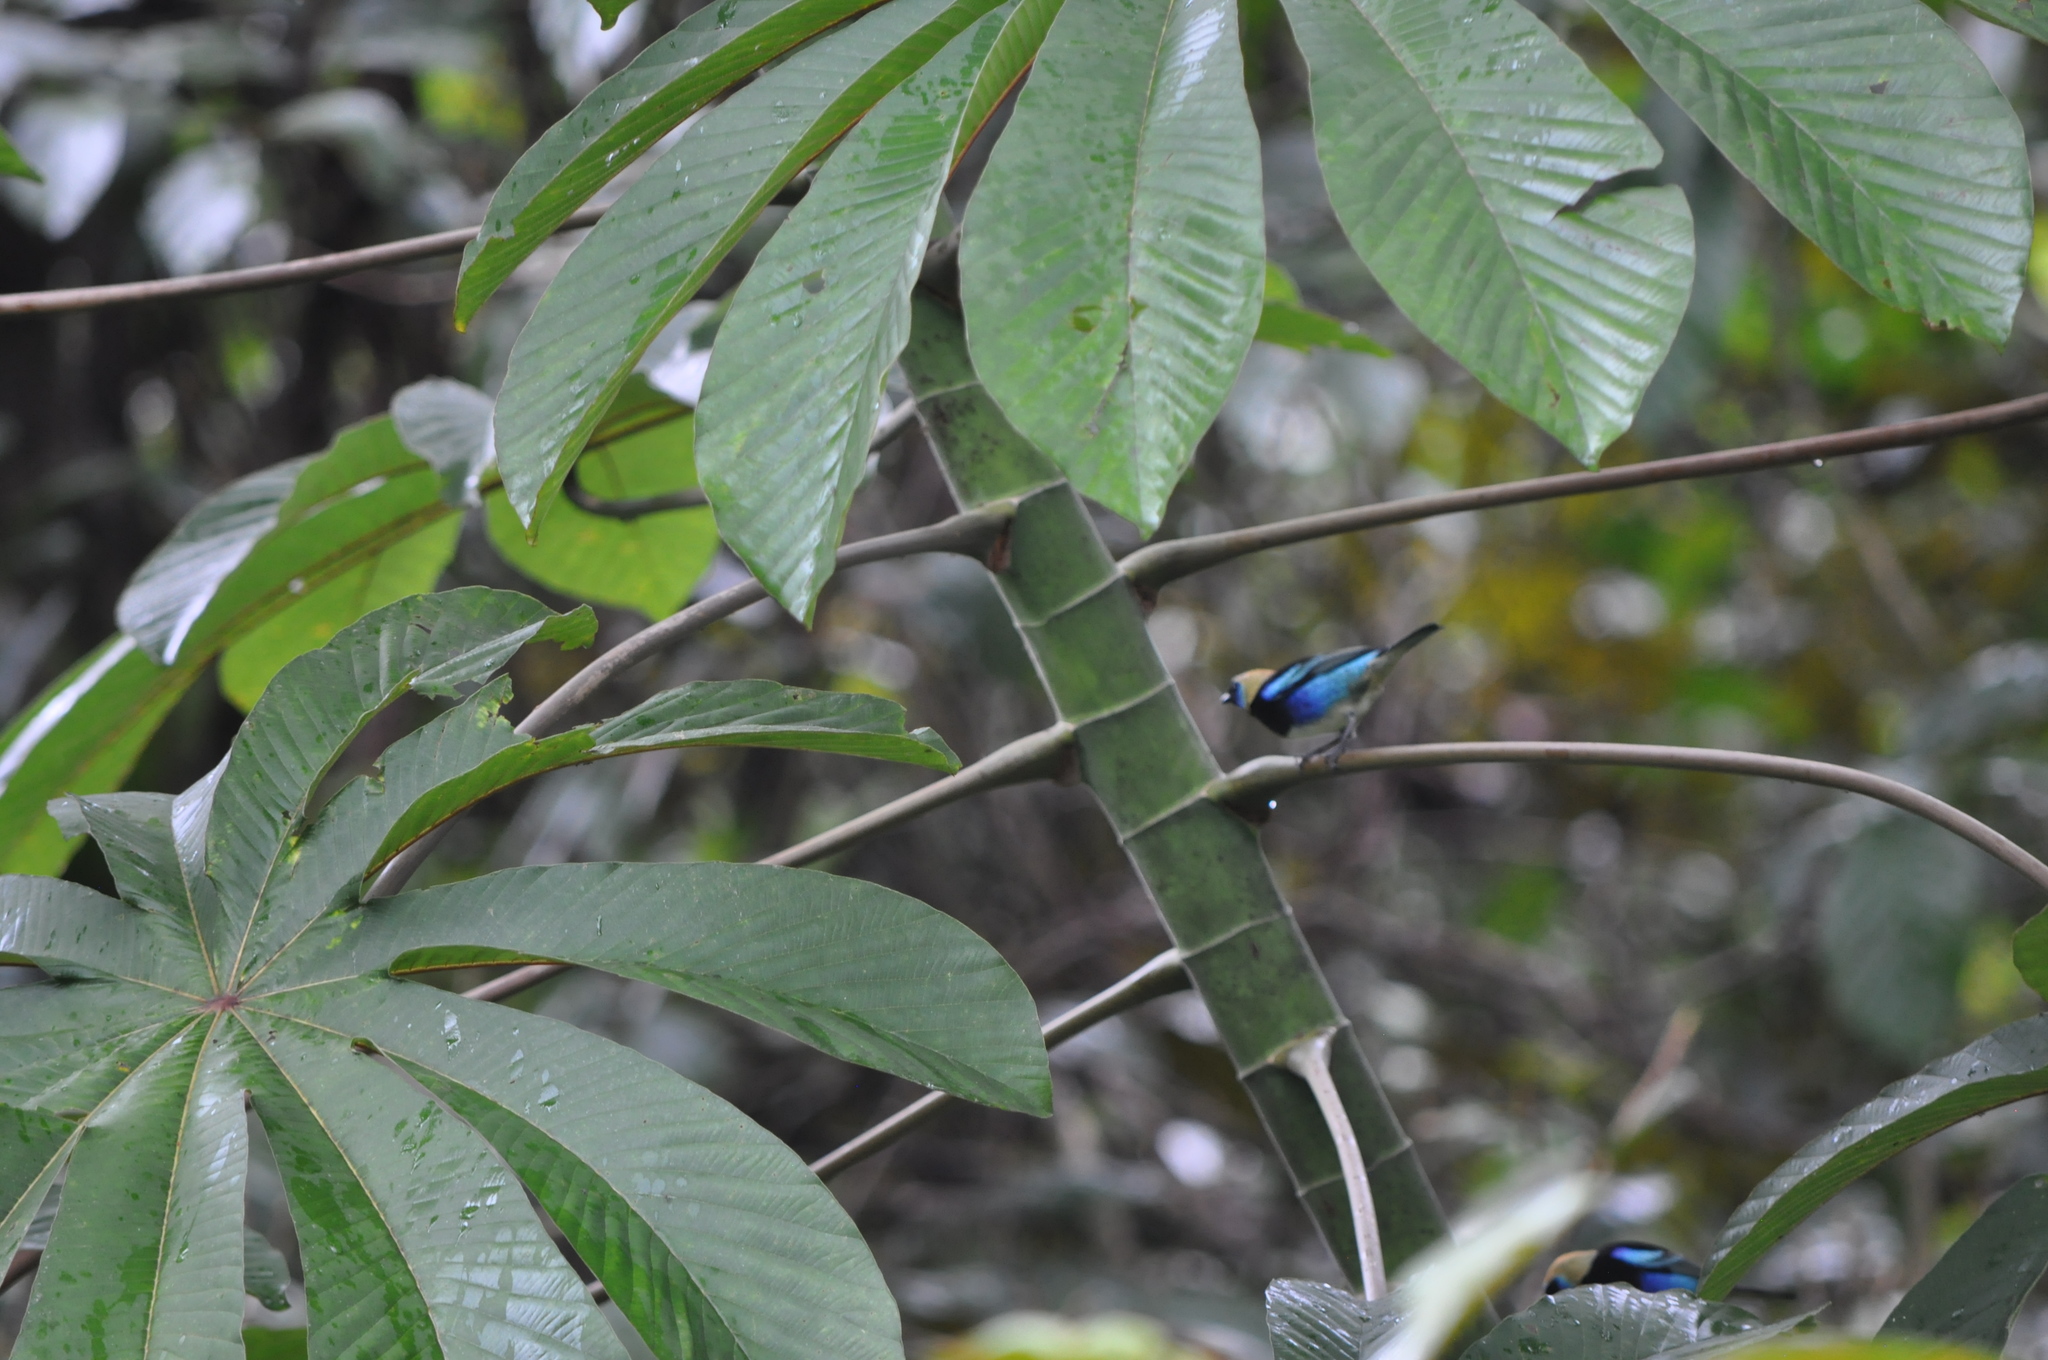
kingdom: Animalia
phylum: Chordata
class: Aves
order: Passeriformes
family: Thraupidae
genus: Stilpnia
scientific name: Stilpnia larvata
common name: Golden-hooded tanager
